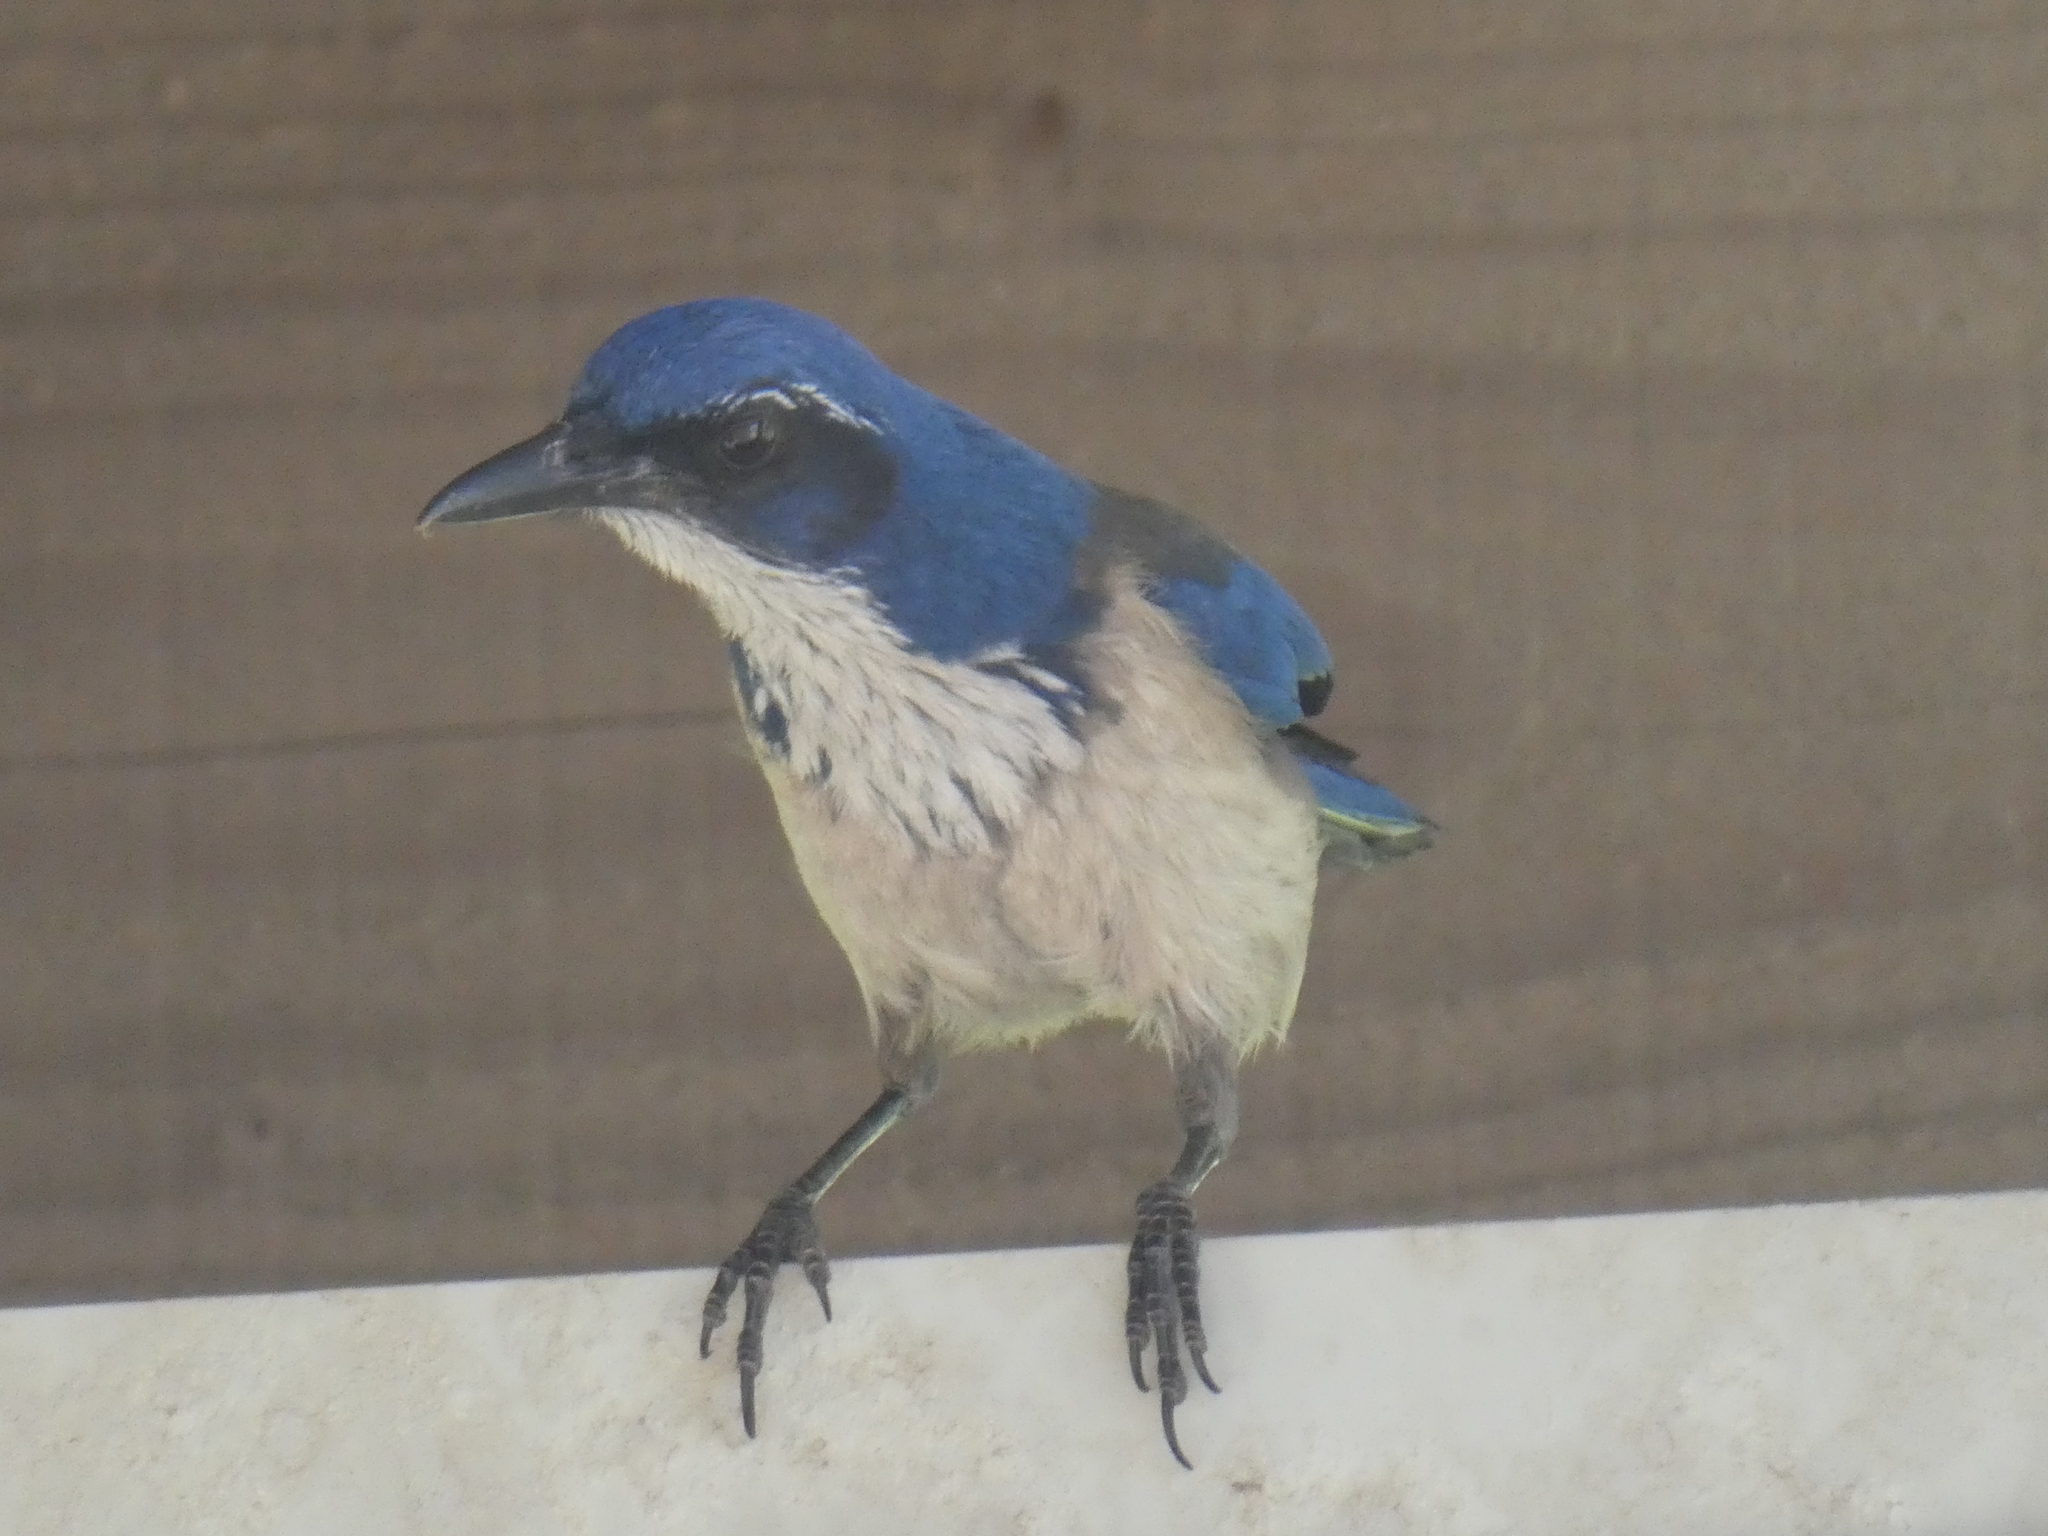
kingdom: Animalia
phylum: Chordata
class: Aves
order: Passeriformes
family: Corvidae
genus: Aphelocoma
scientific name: Aphelocoma insularis
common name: Island scrub-jay
